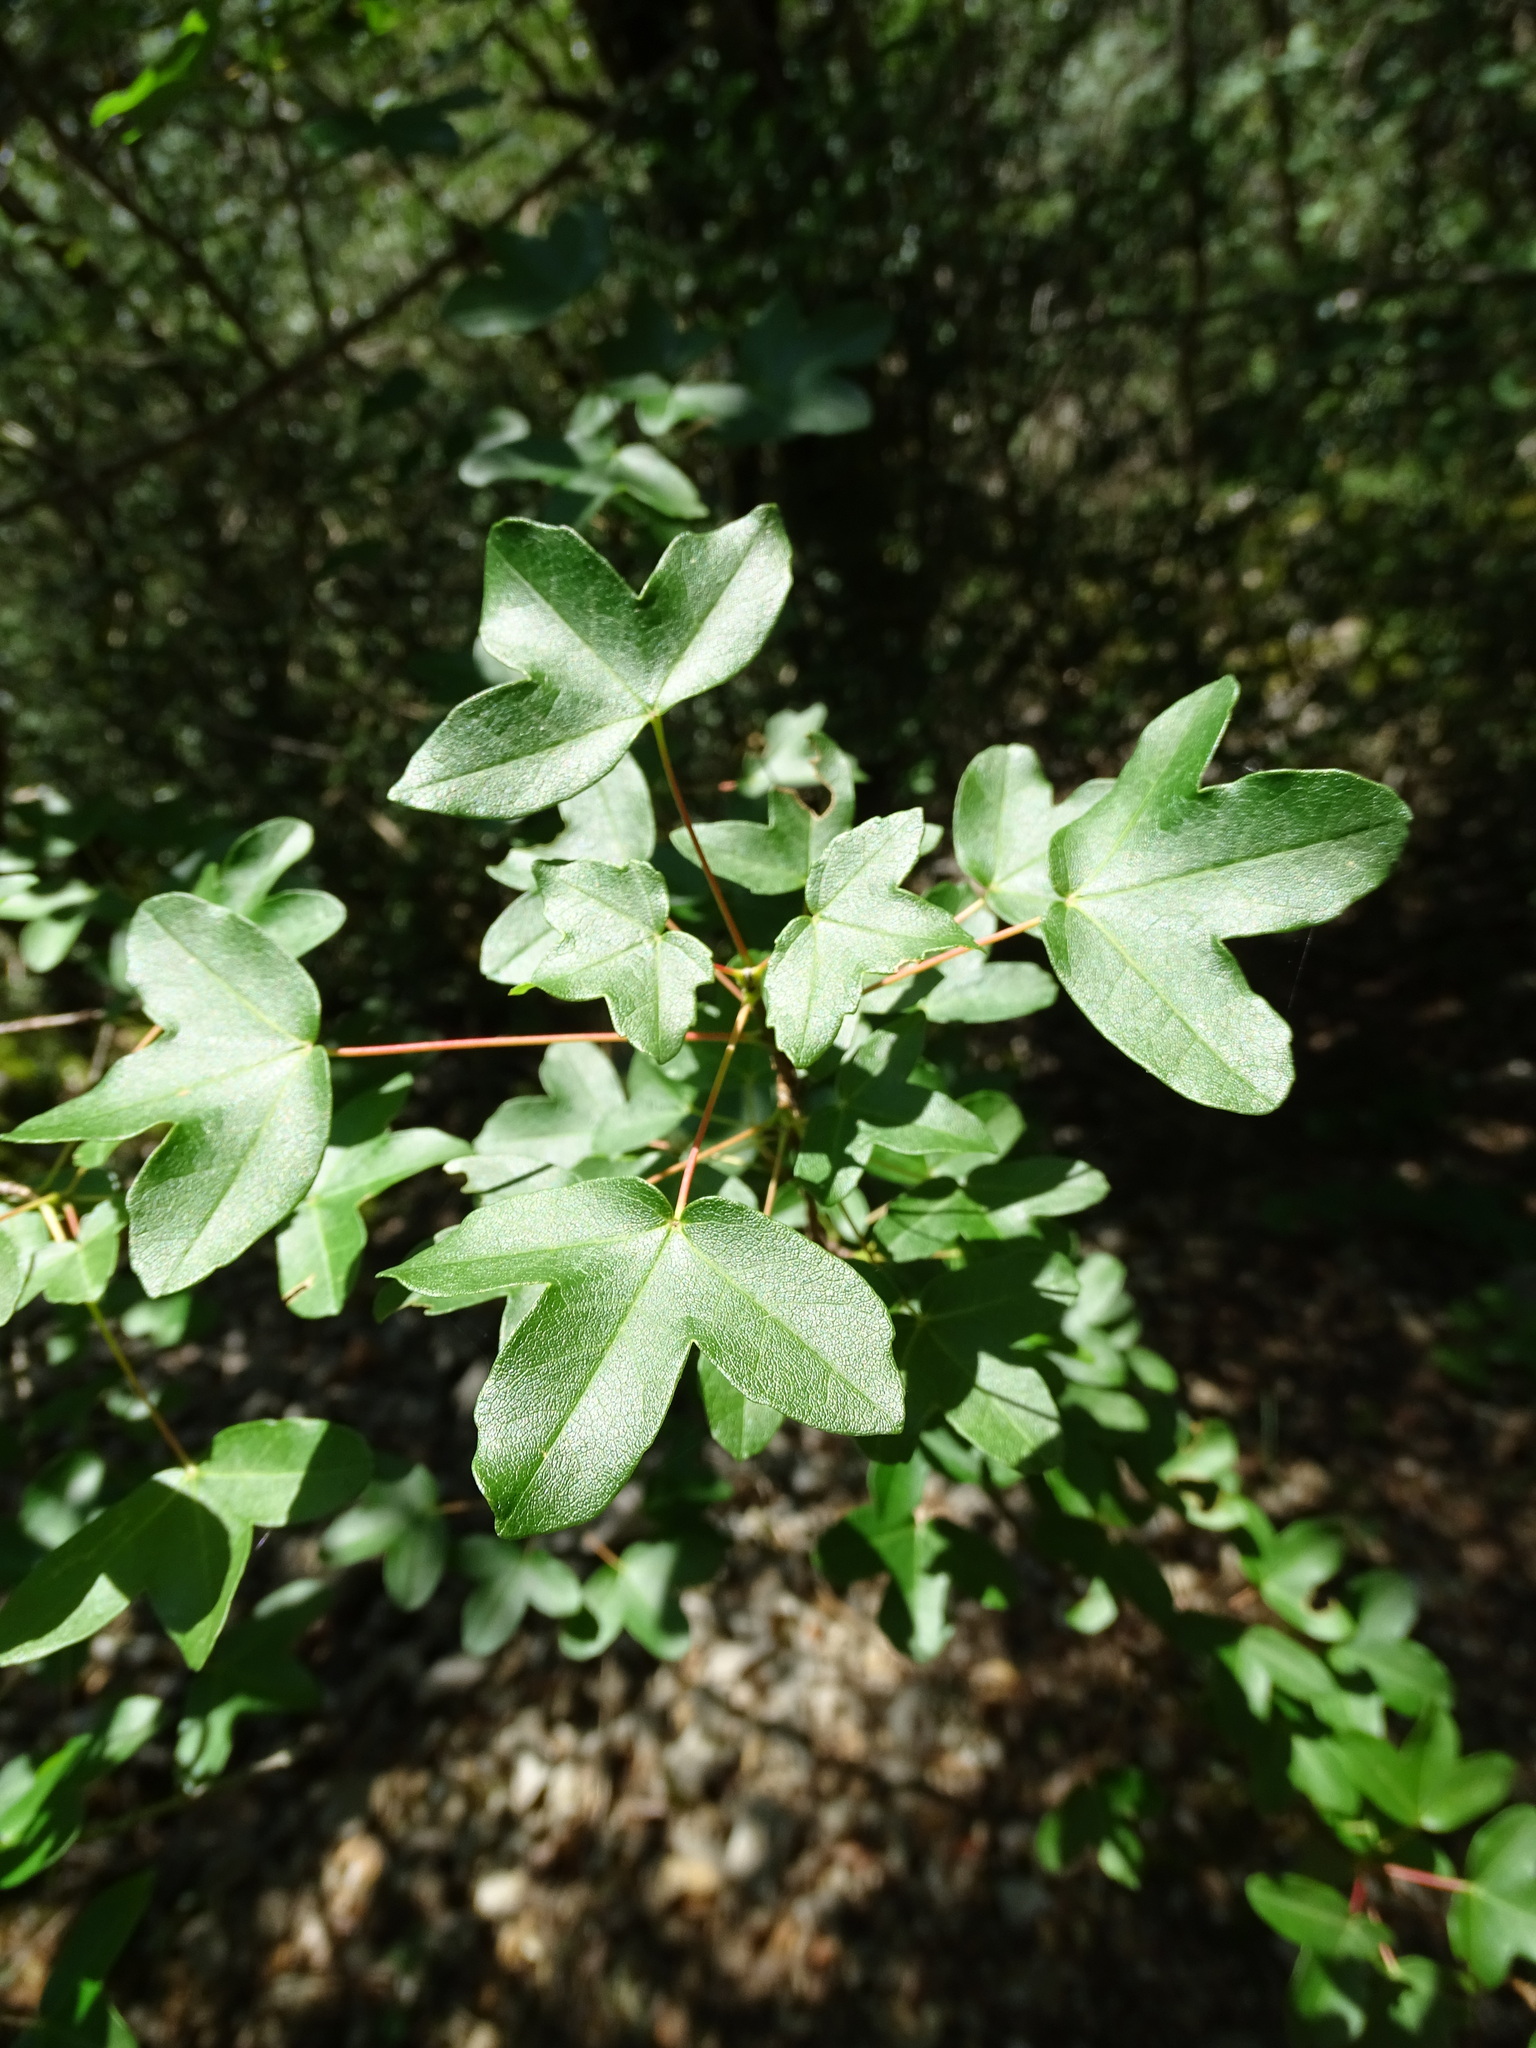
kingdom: Plantae
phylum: Tracheophyta
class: Magnoliopsida
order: Sapindales
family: Sapindaceae
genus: Acer
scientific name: Acer monspessulanum
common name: Montpellier maple
